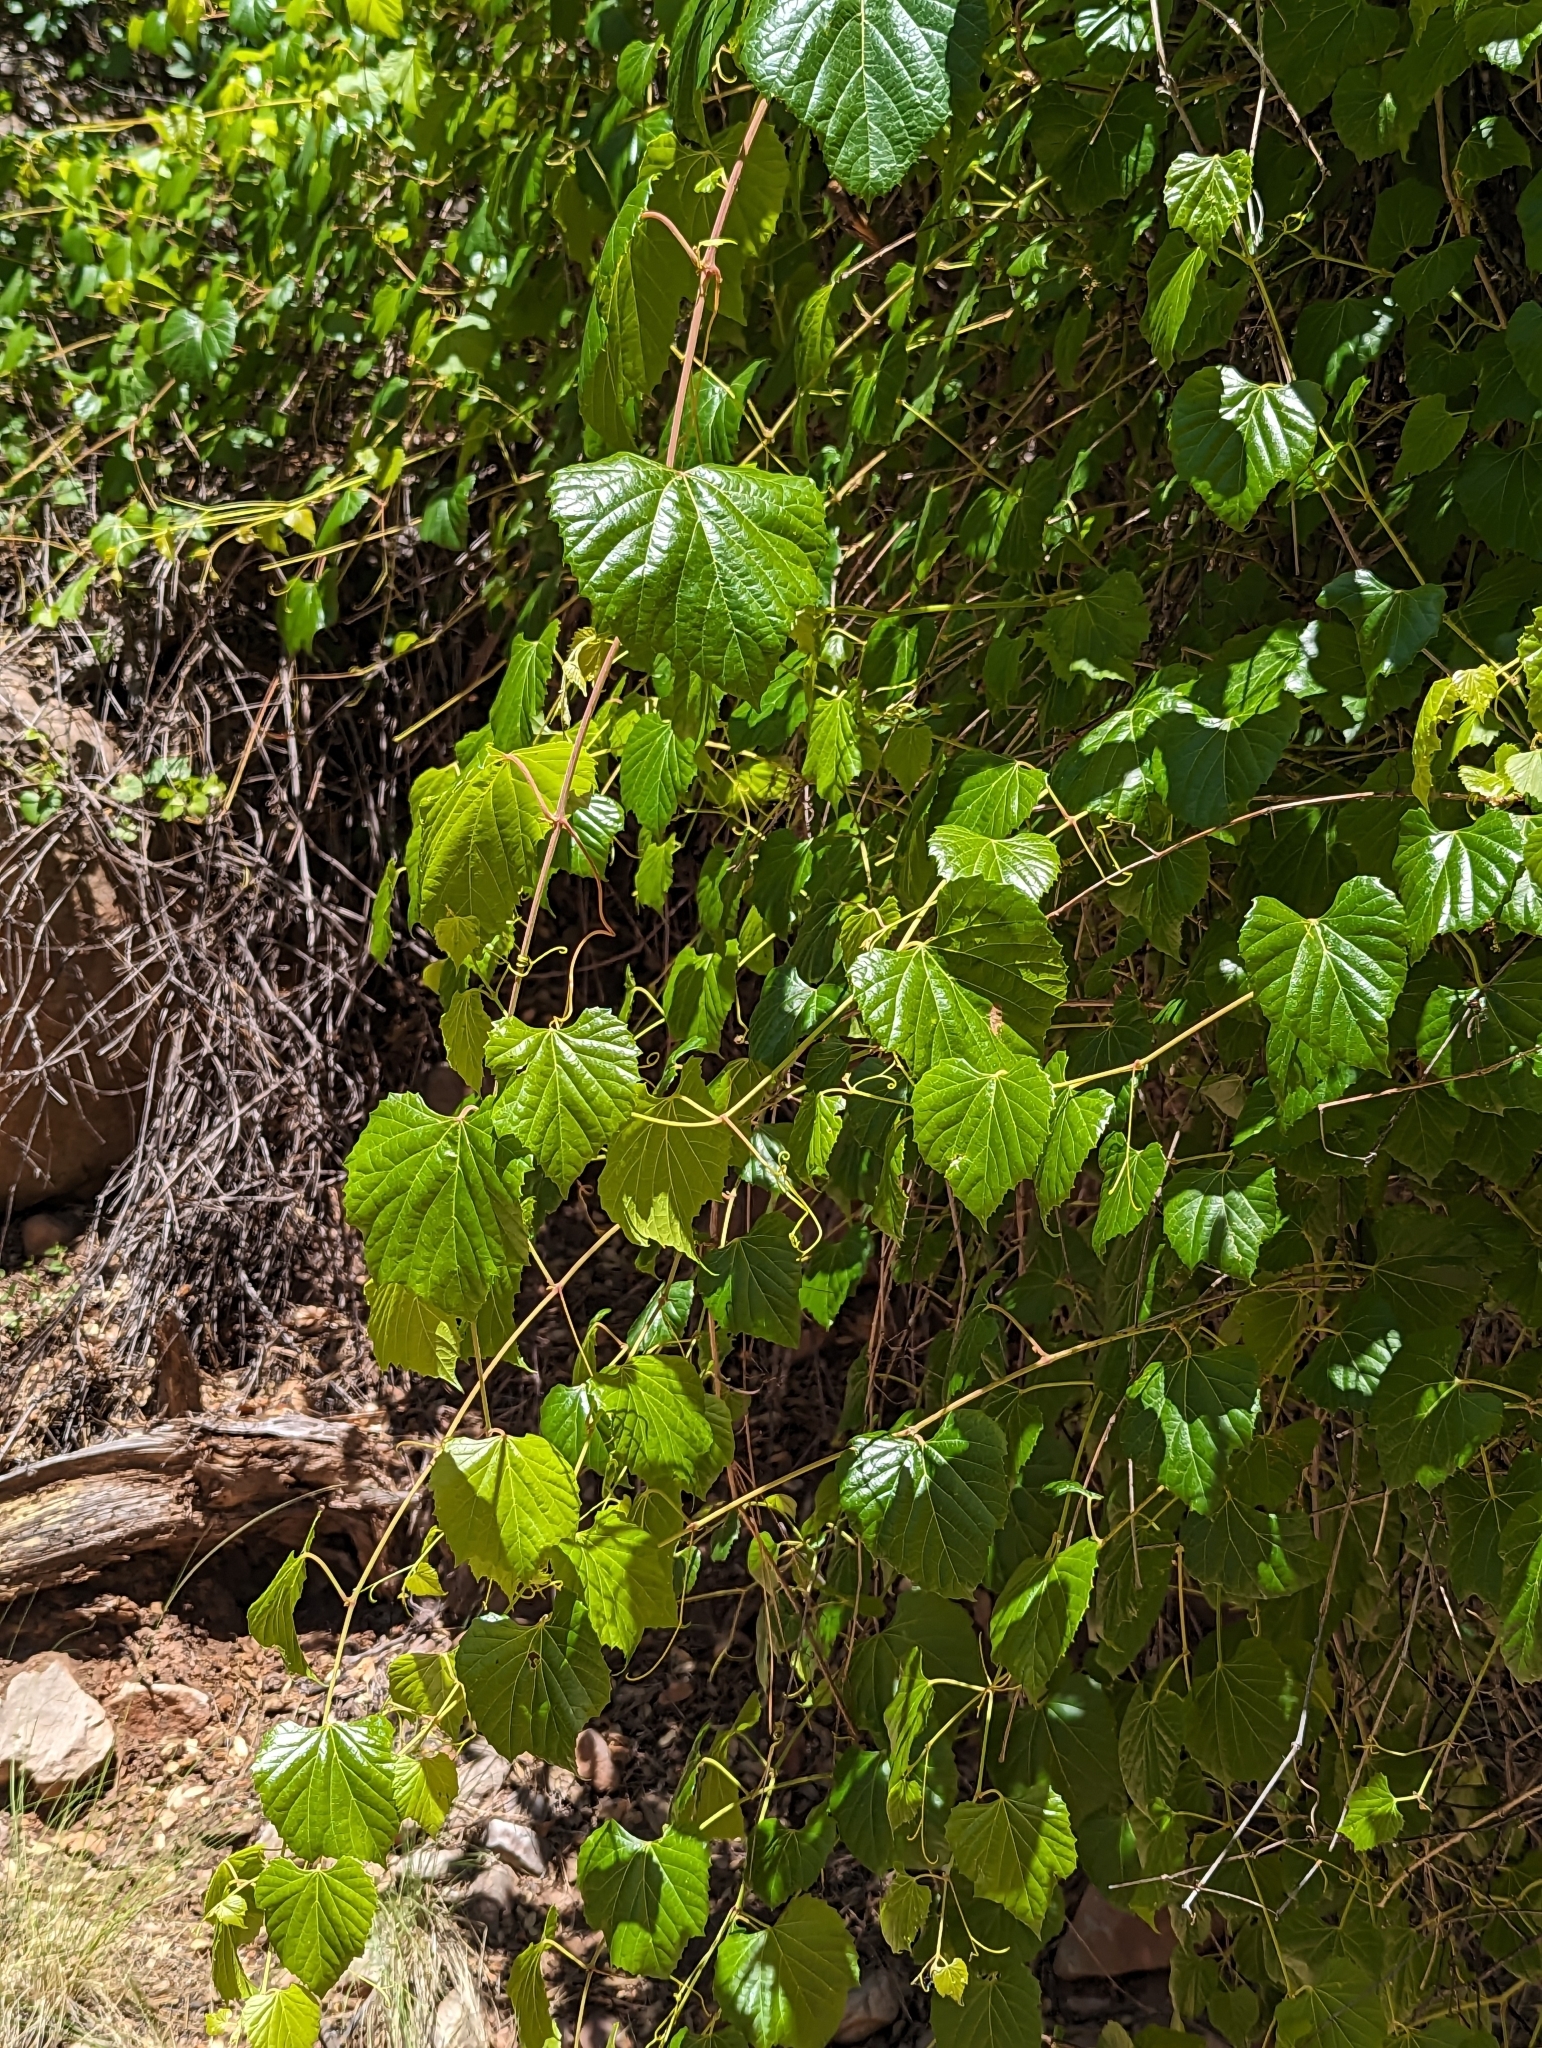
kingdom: Plantae
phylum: Tracheophyta
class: Magnoliopsida
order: Vitales
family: Vitaceae
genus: Vitis
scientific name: Vitis arizonica
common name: Canyon grape
